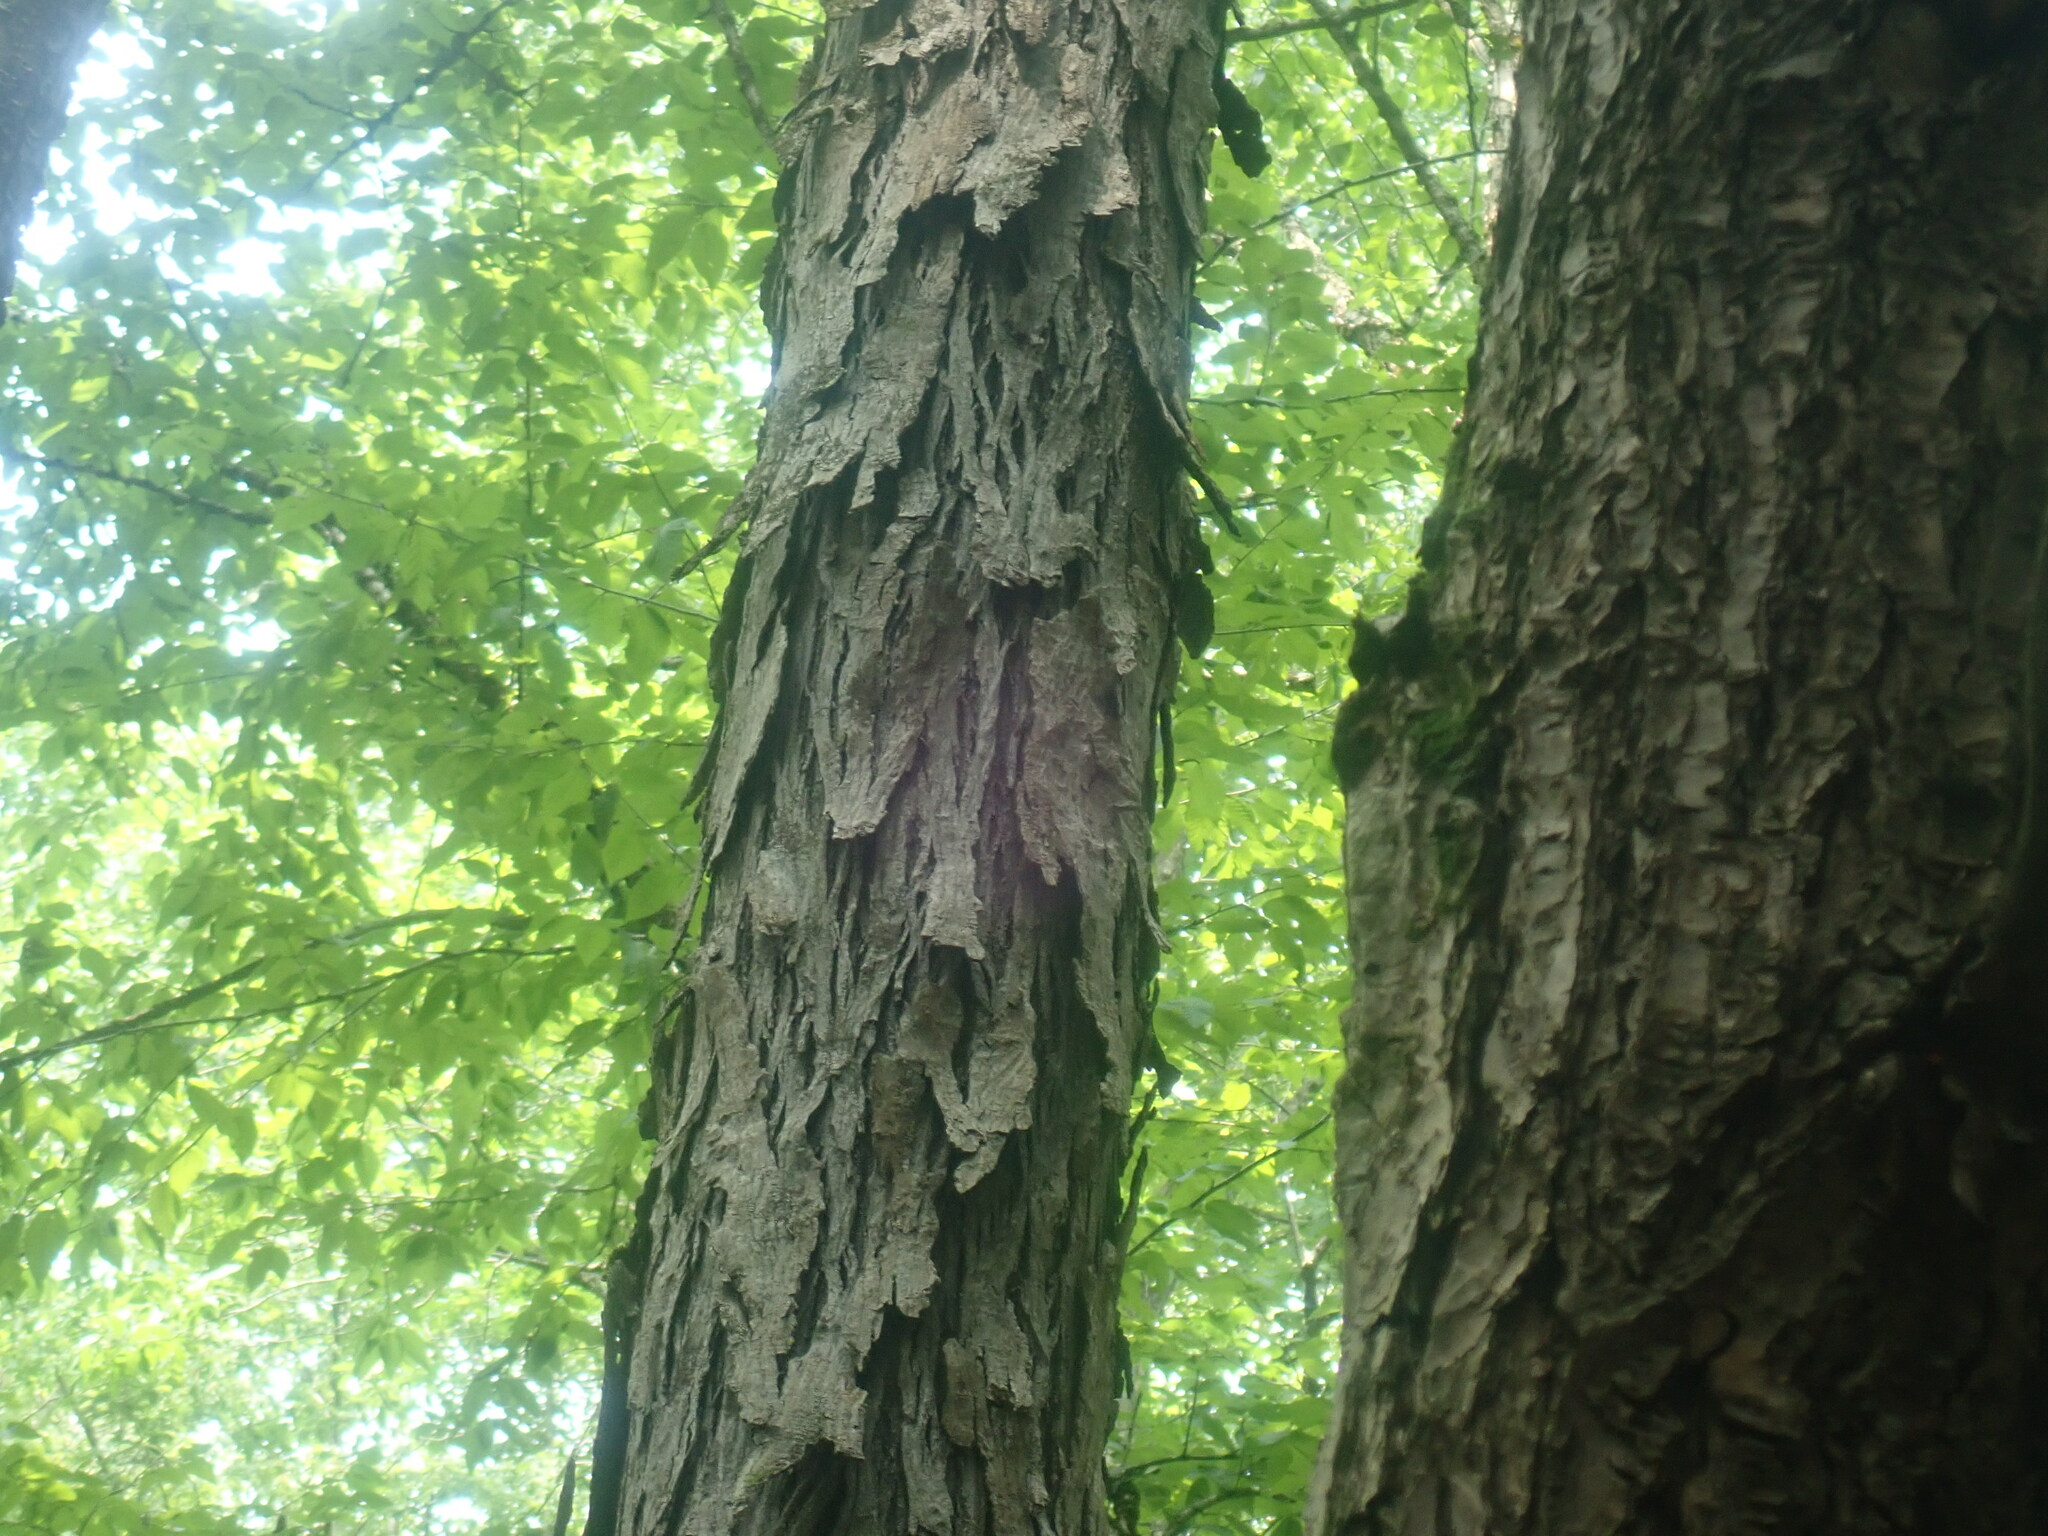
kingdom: Plantae
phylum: Tracheophyta
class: Magnoliopsida
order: Fagales
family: Juglandaceae
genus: Carya
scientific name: Carya ovata
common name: Shagbark hickory
